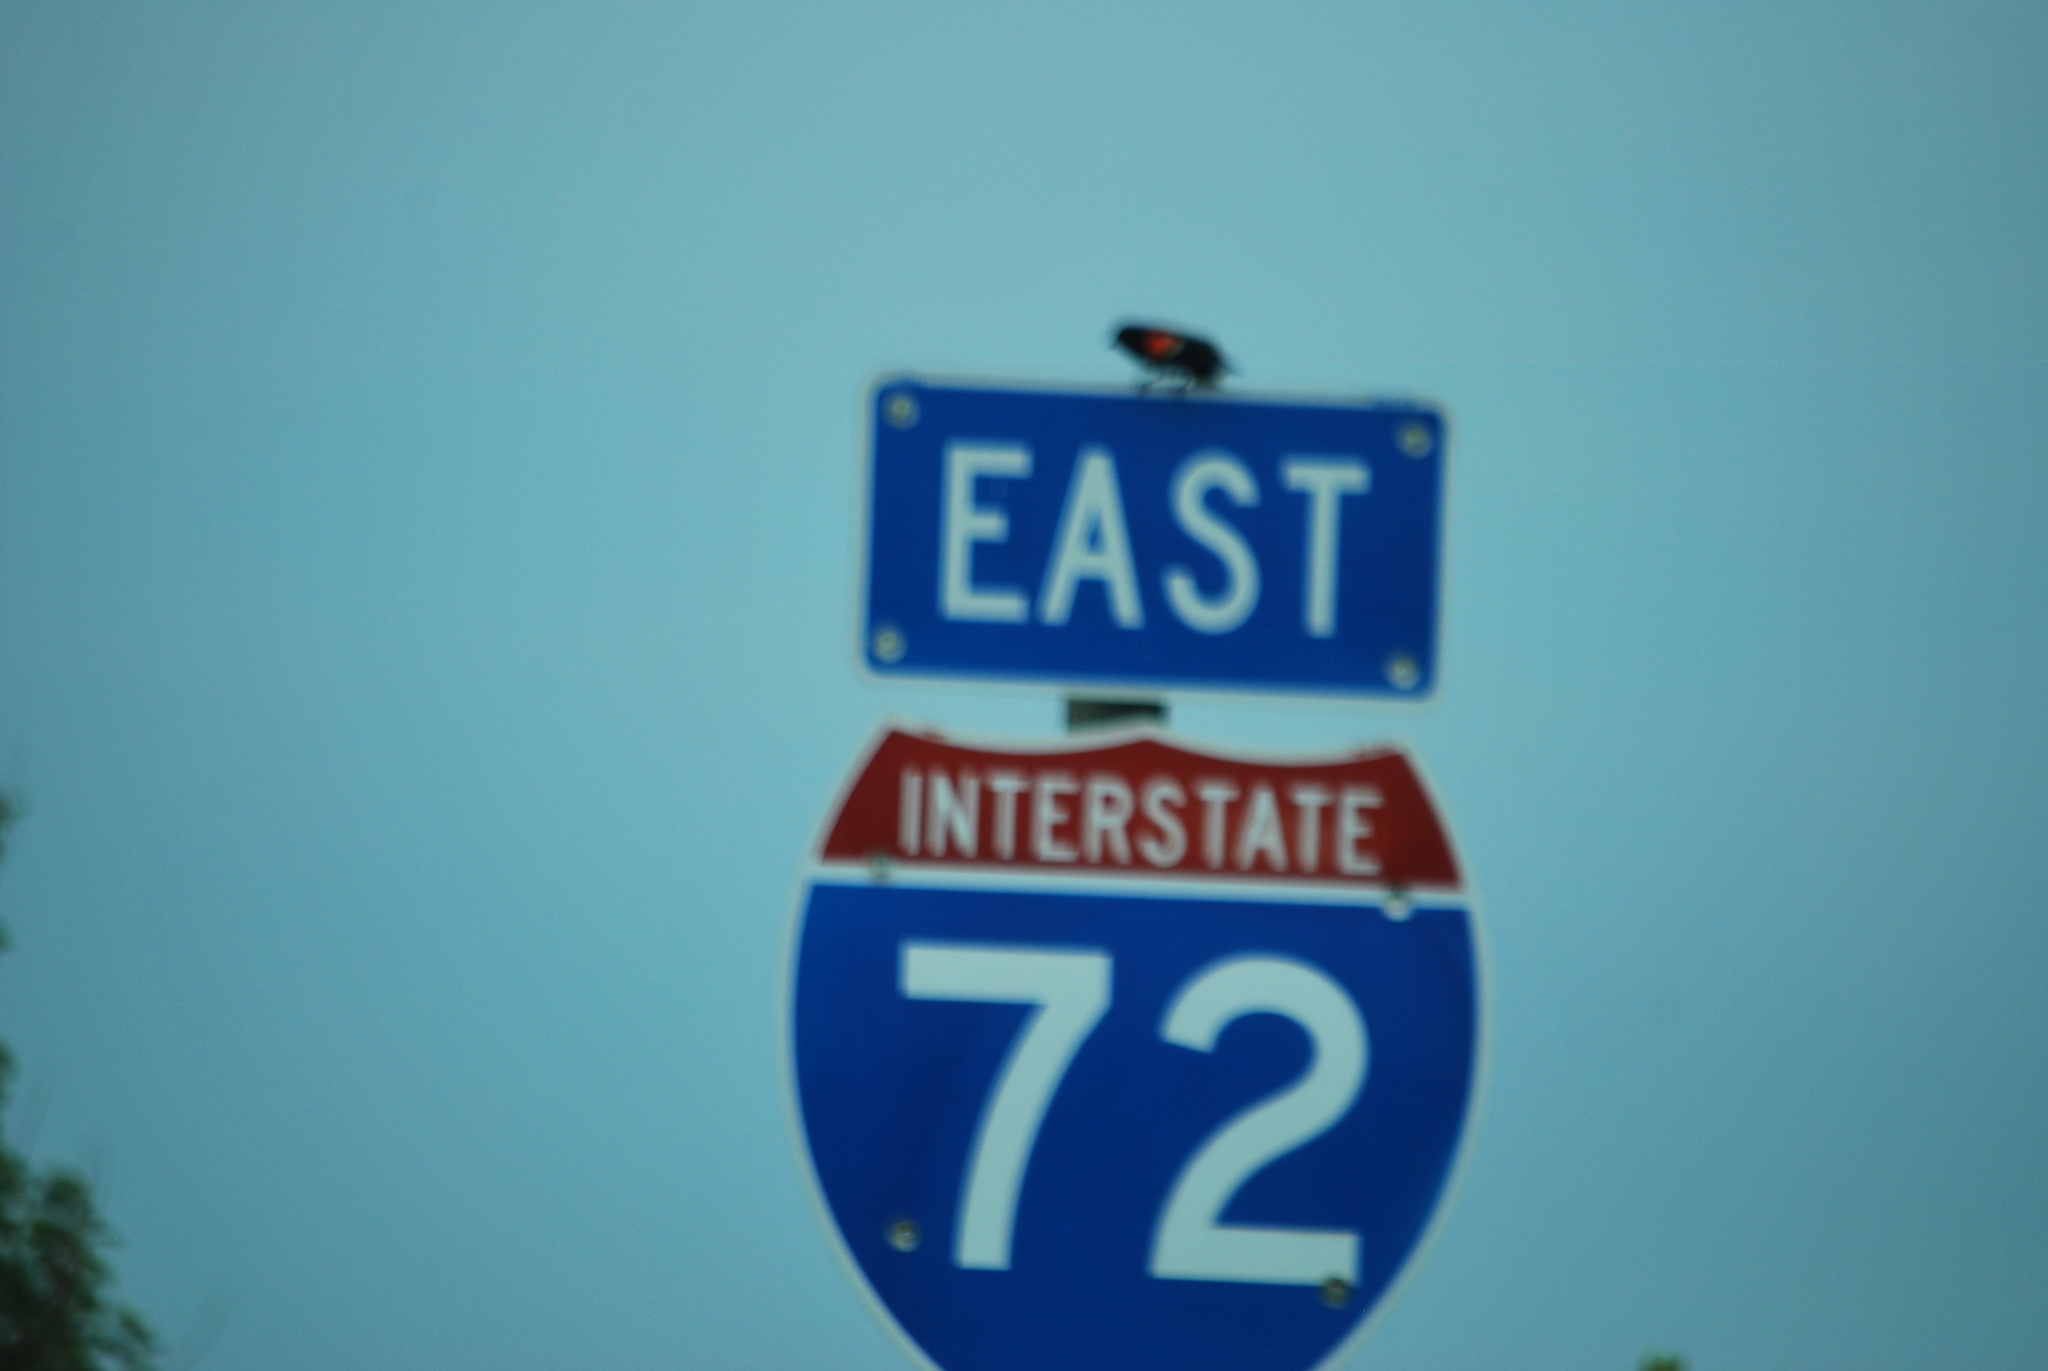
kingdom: Animalia
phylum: Chordata
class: Aves
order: Passeriformes
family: Icteridae
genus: Agelaius
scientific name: Agelaius phoeniceus
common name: Red-winged blackbird
